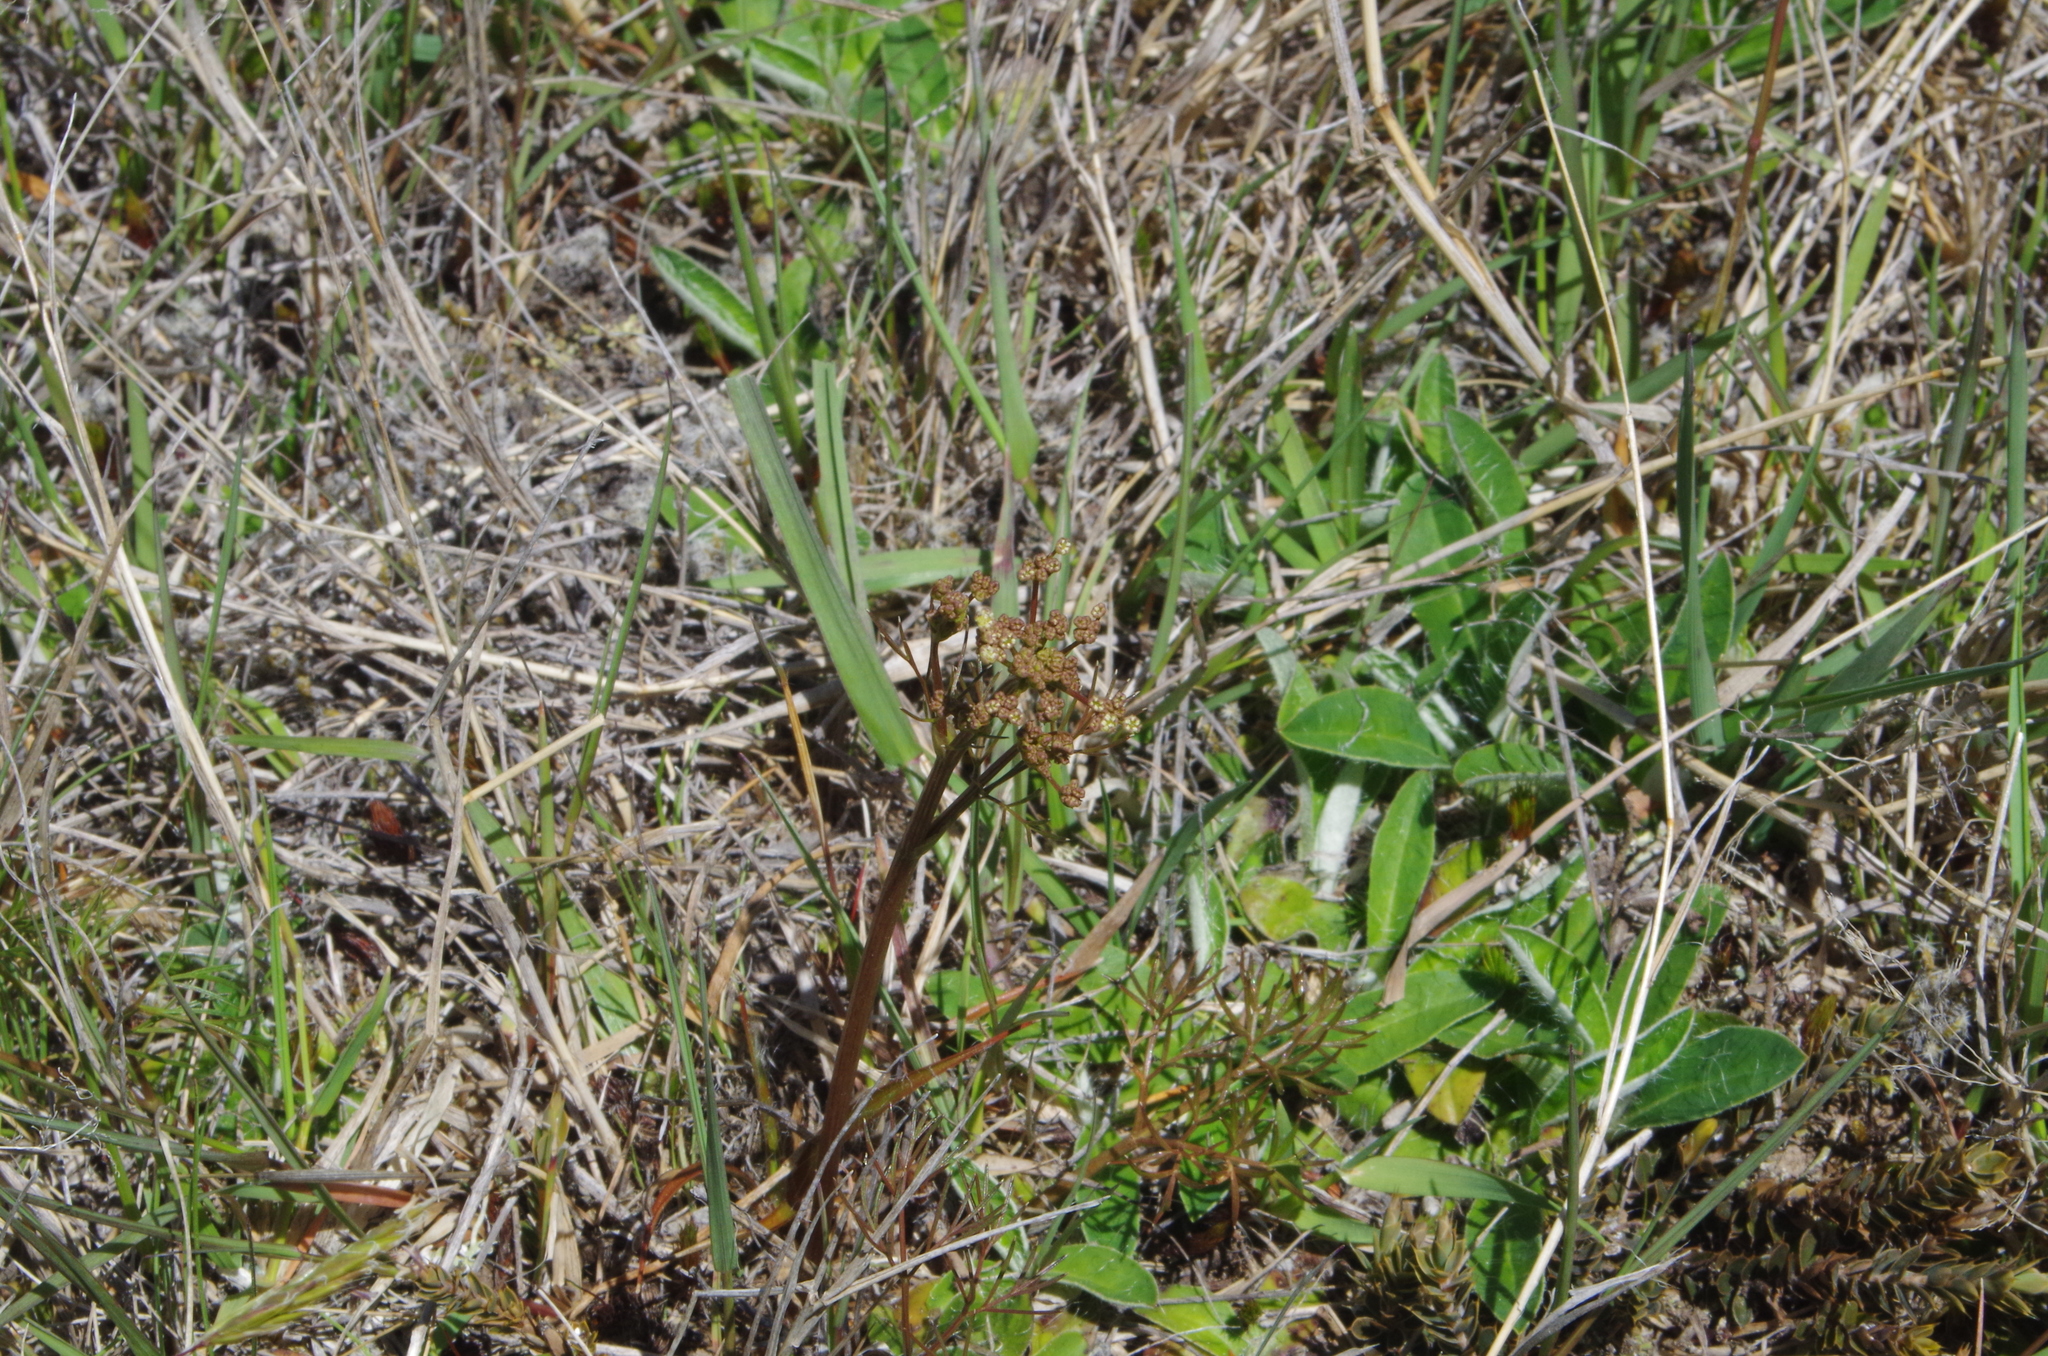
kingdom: Plantae
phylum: Tracheophyta
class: Magnoliopsida
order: Apiales
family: Apiaceae
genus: Anisotome
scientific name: Anisotome filifolia
